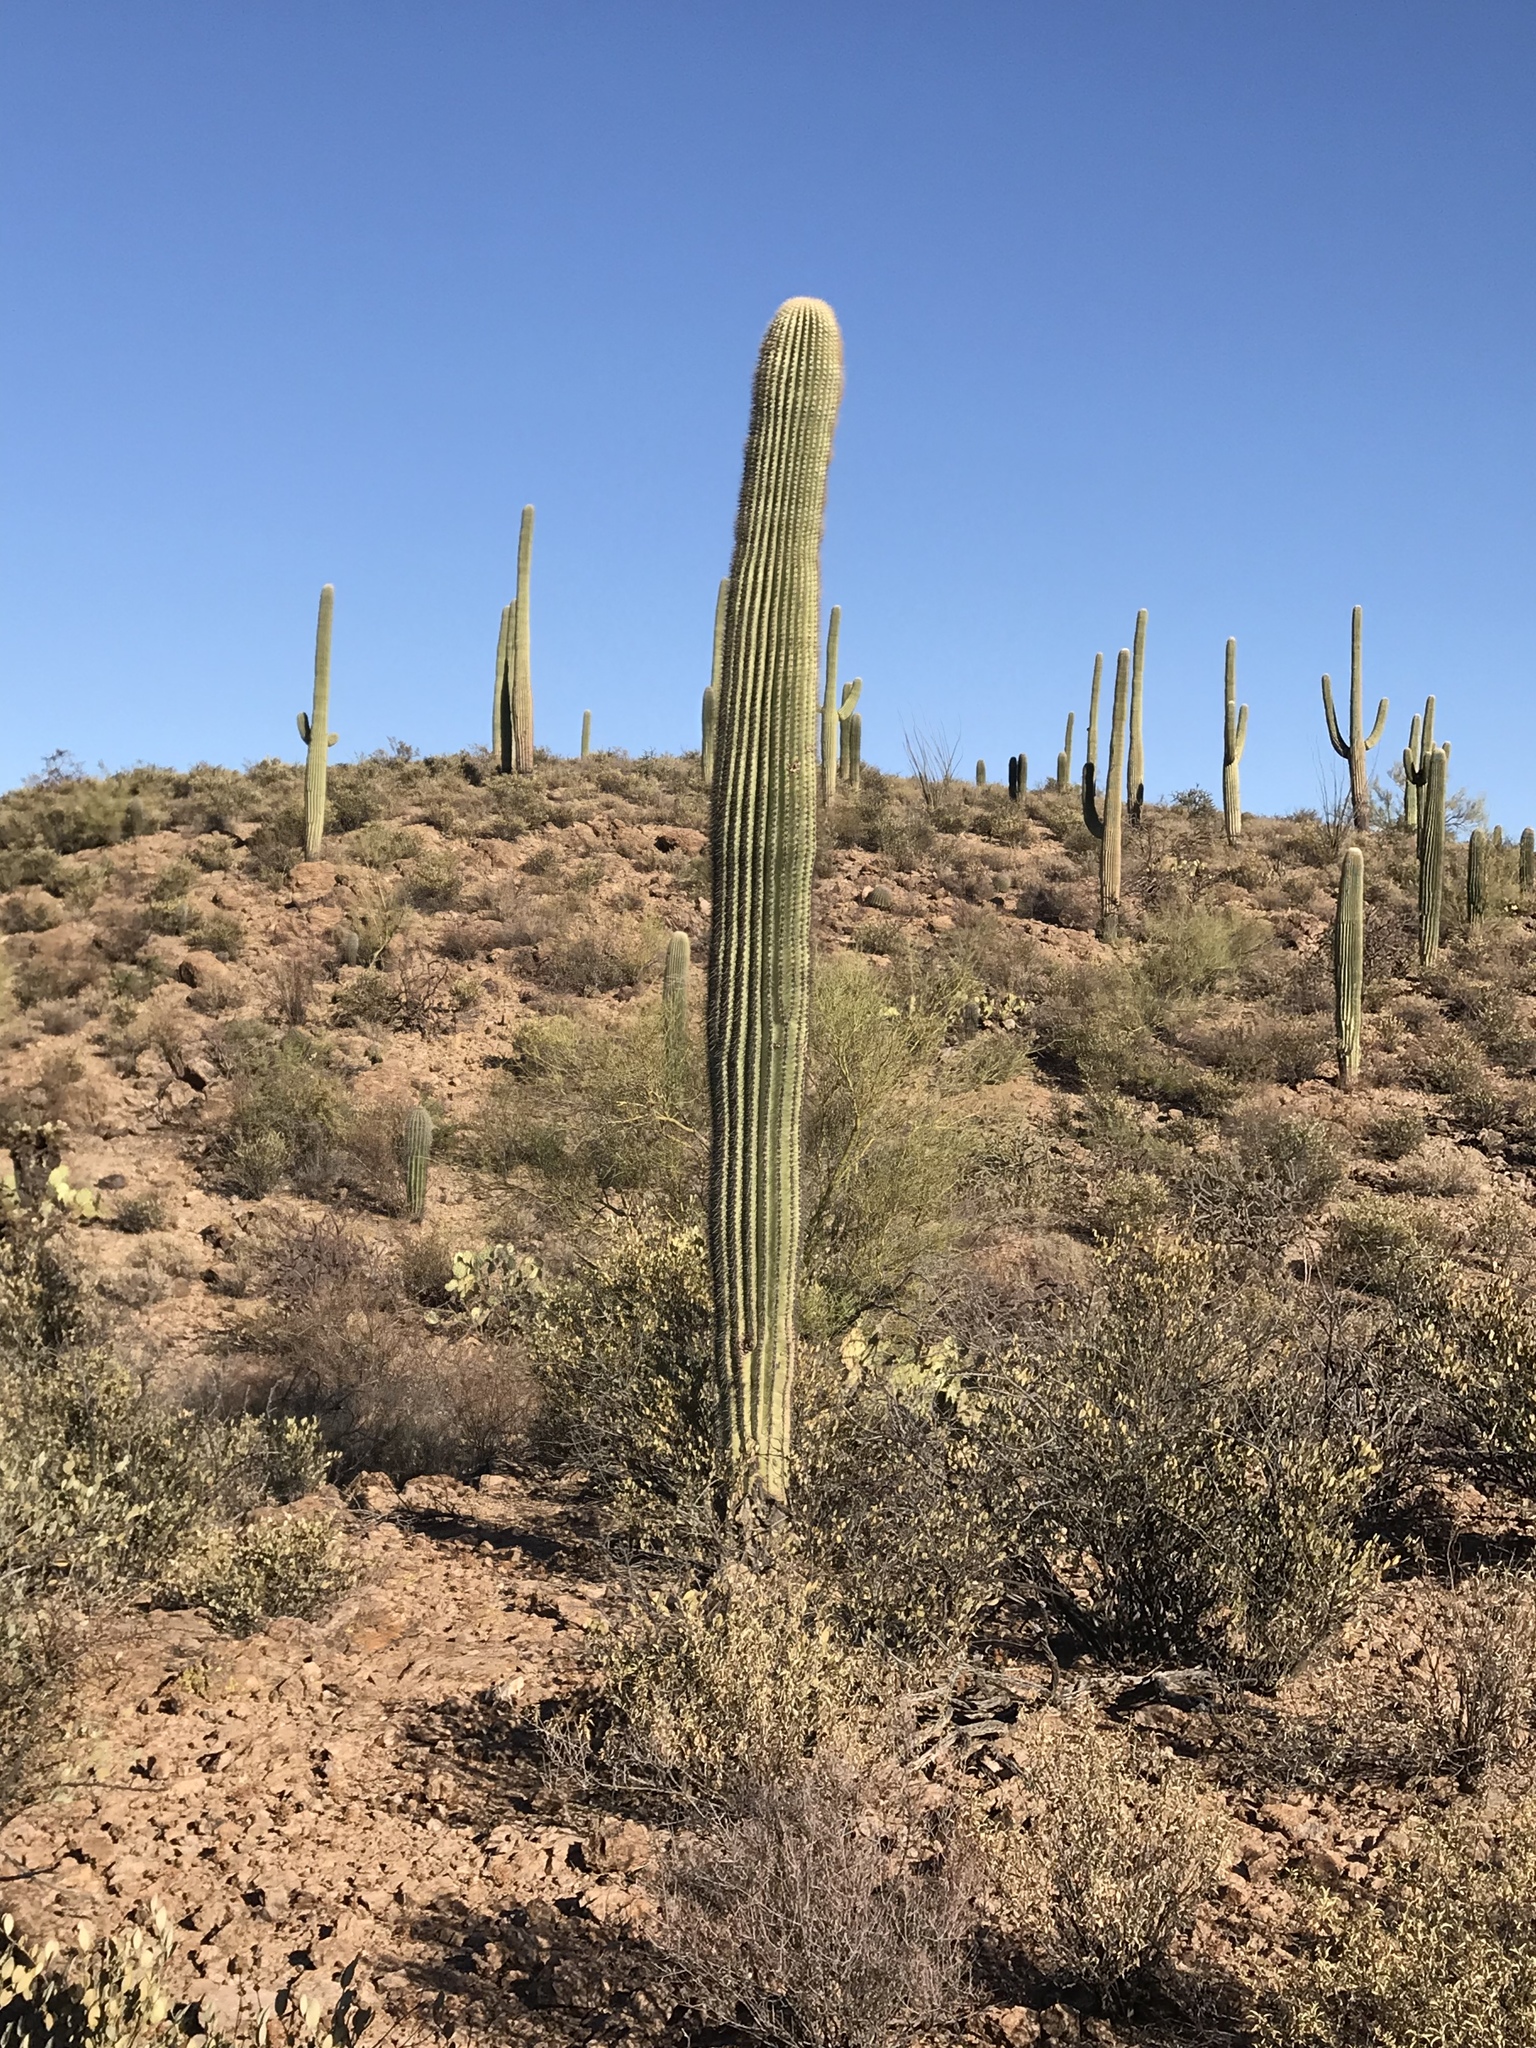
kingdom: Plantae
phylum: Tracheophyta
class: Magnoliopsida
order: Caryophyllales
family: Cactaceae
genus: Carnegiea
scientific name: Carnegiea gigantea
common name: Saguaro
